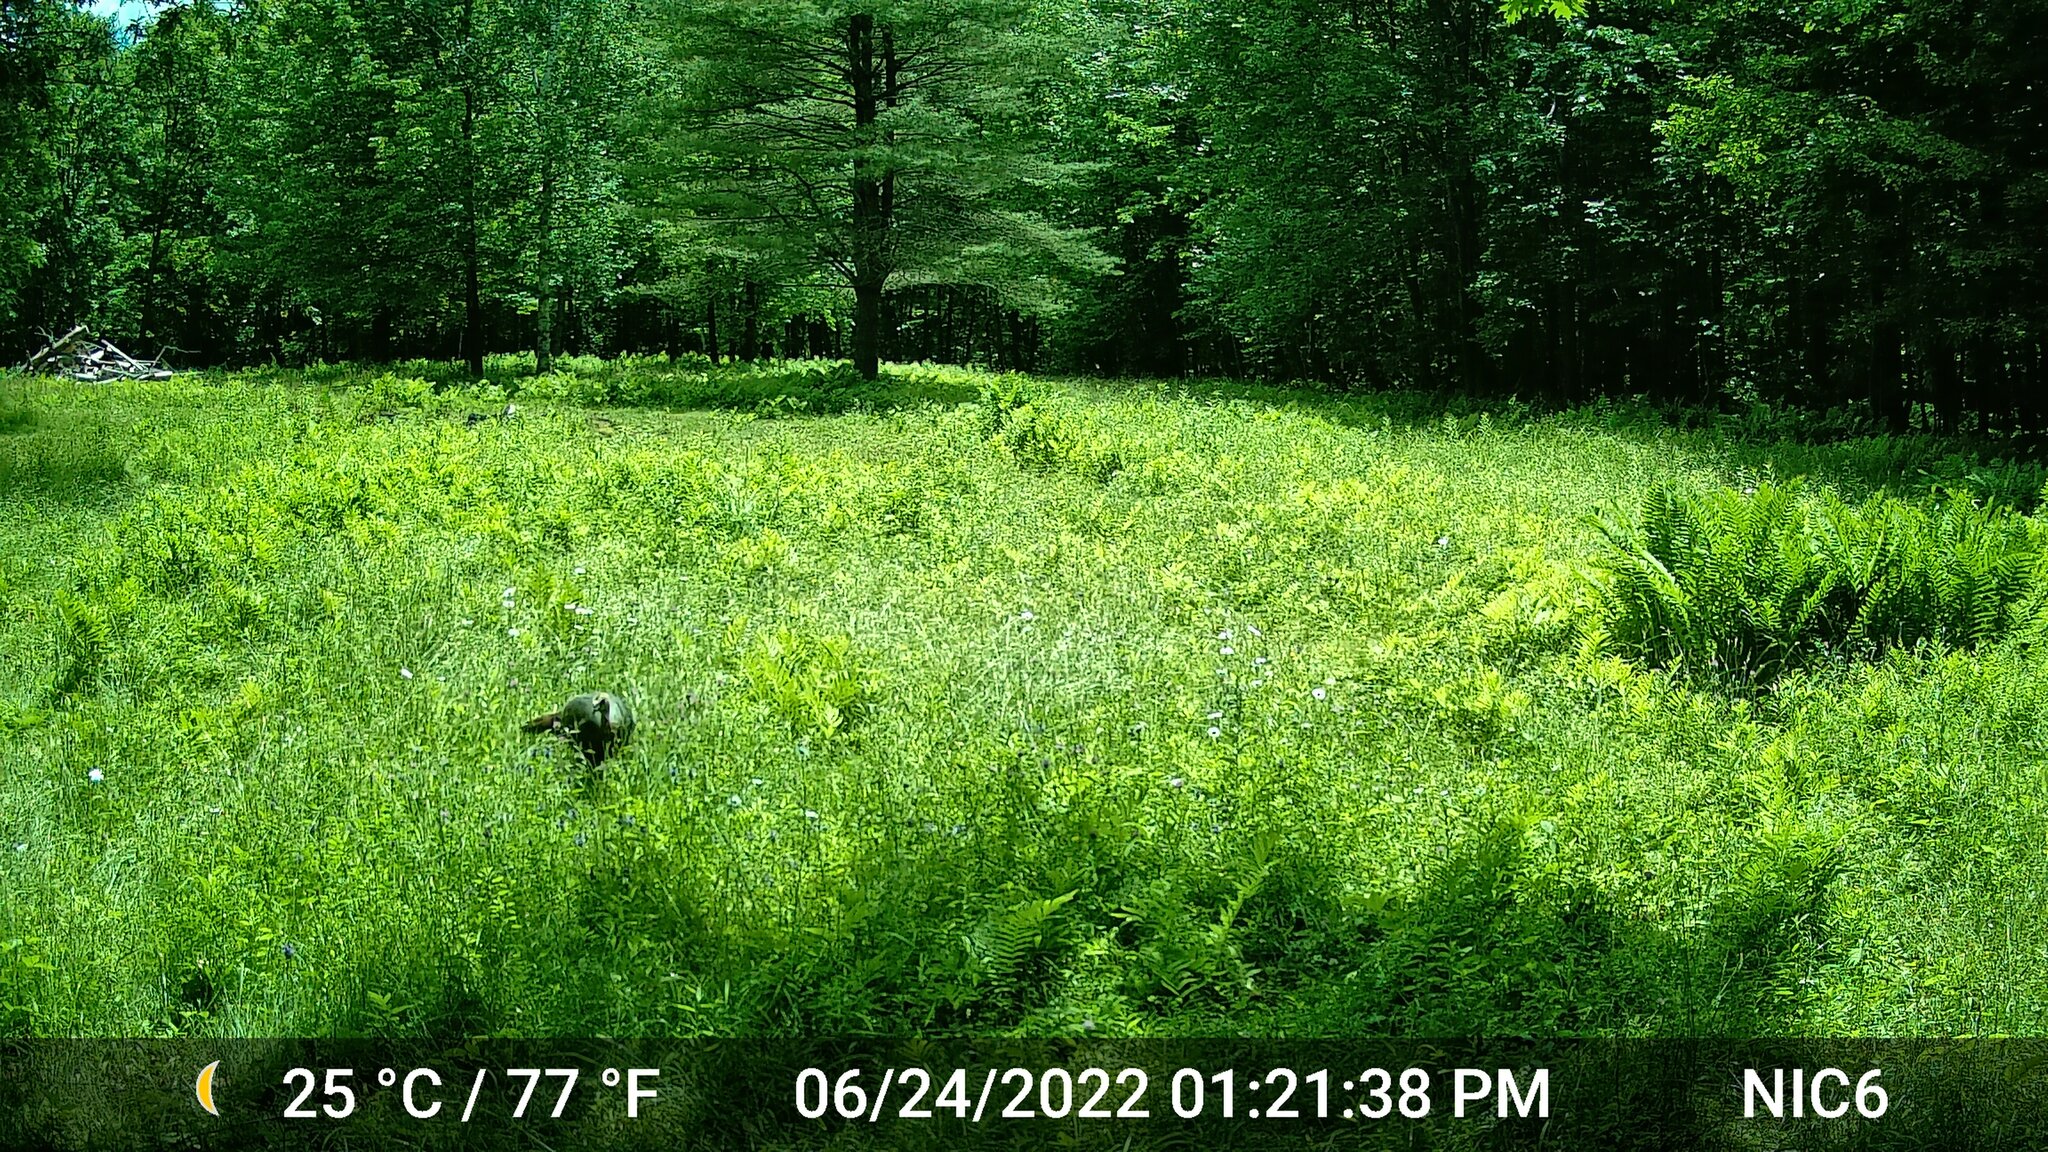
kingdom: Animalia
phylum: Chordata
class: Aves
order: Galliformes
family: Phasianidae
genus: Meleagris
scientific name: Meleagris gallopavo
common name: Wild turkey
